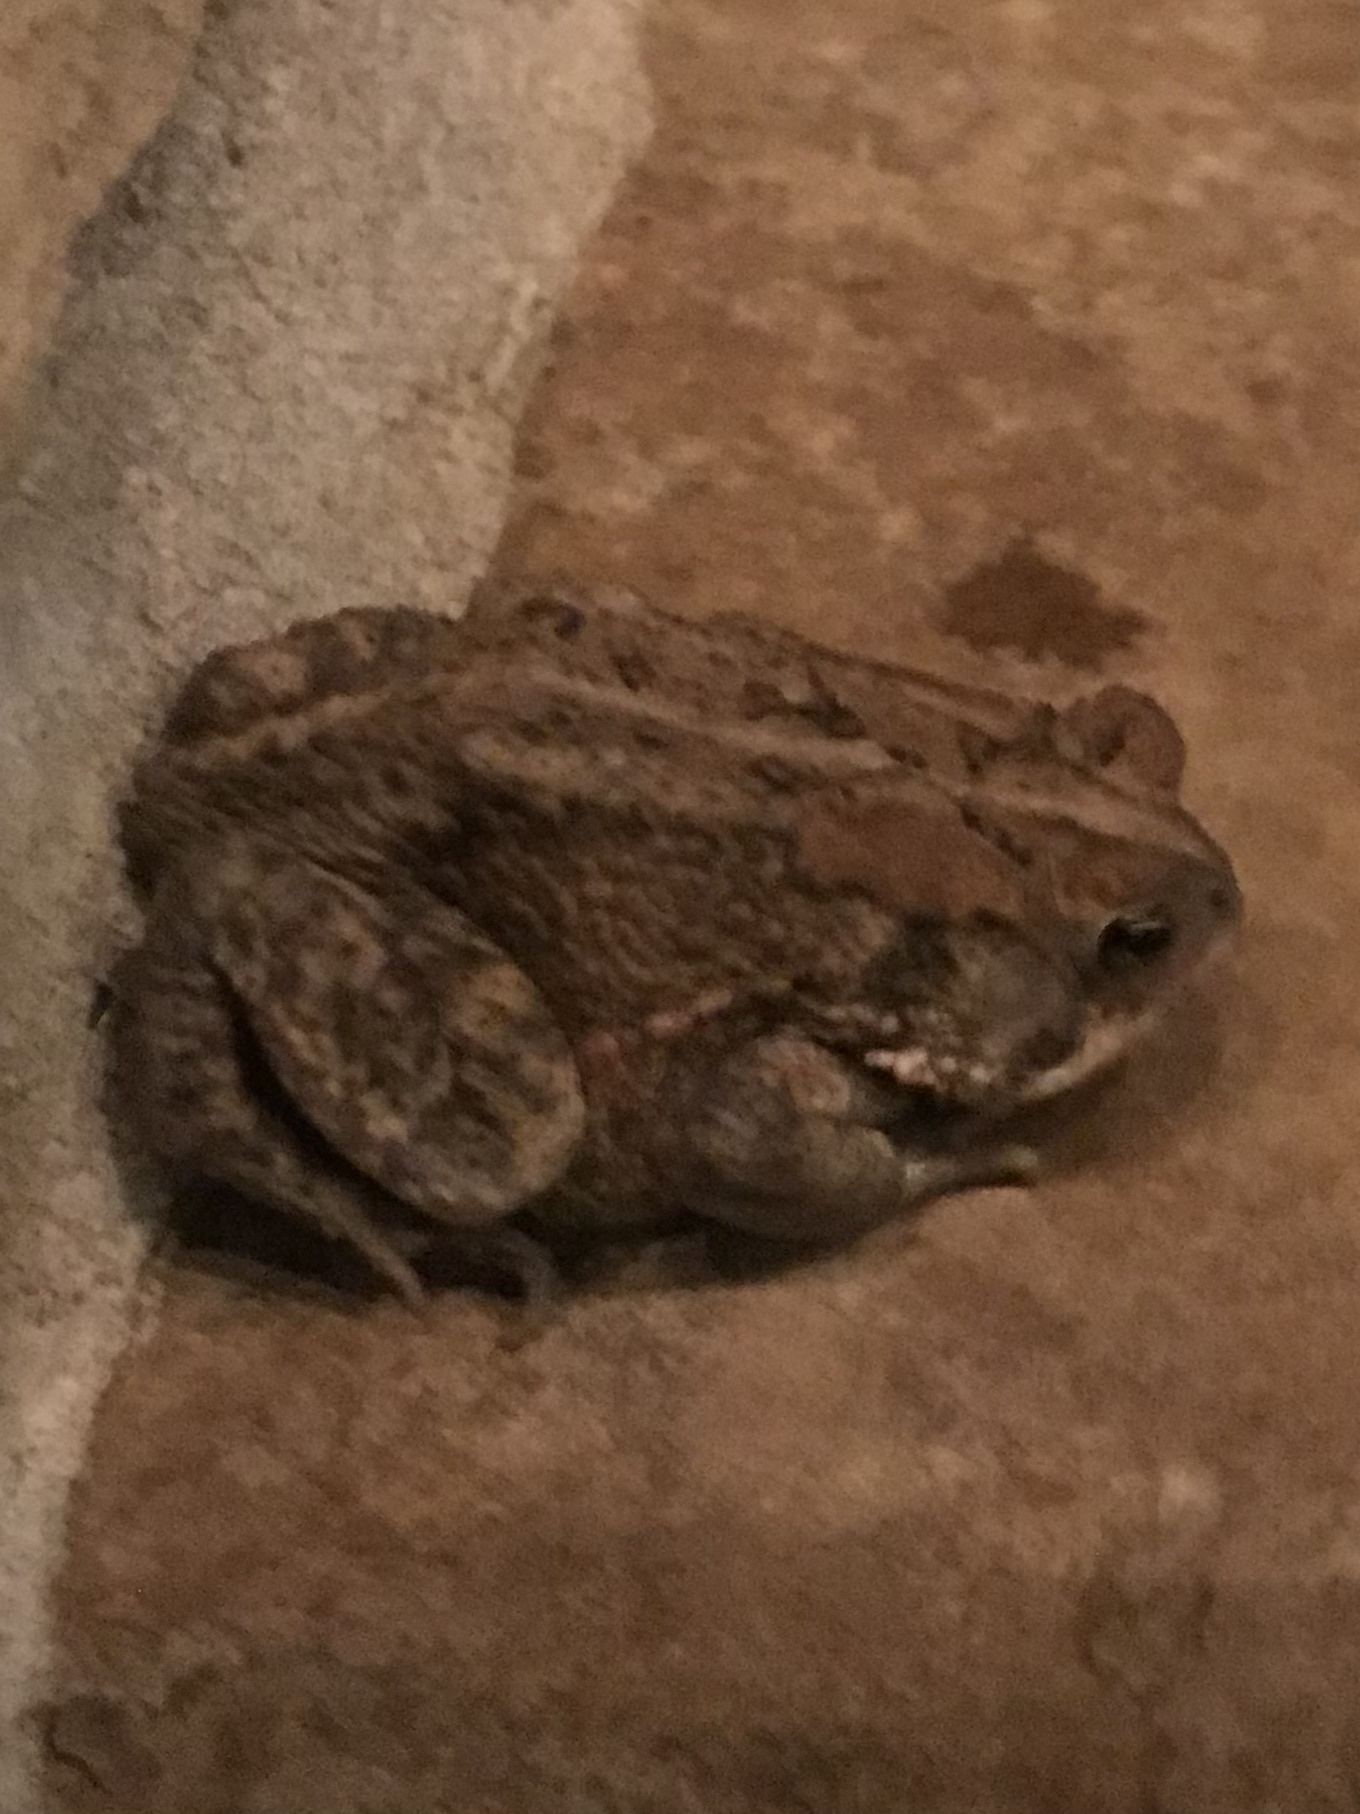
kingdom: Animalia
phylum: Chordata
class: Amphibia
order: Anura
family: Bufonidae
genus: Anaxyrus
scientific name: Anaxyrus americanus
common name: American toad
